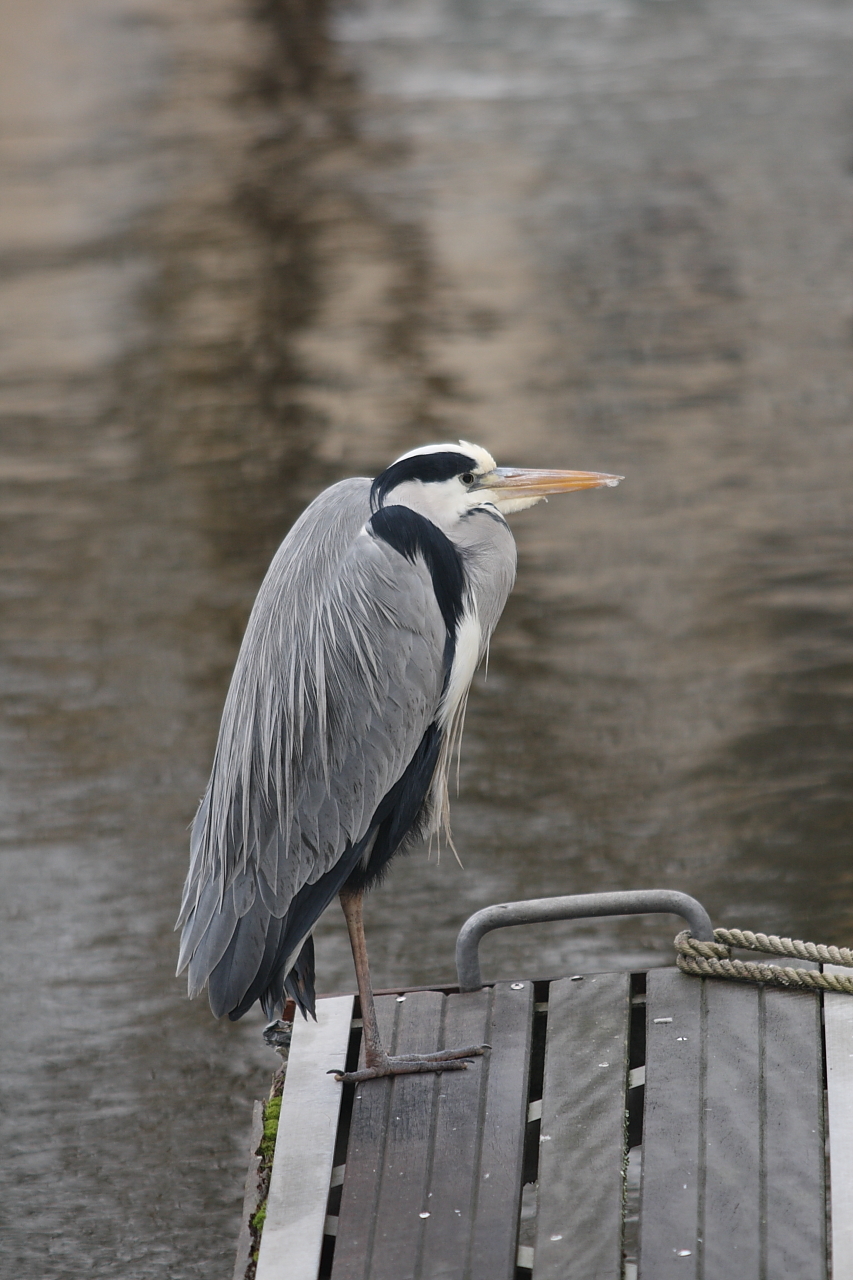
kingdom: Animalia
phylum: Chordata
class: Aves
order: Pelecaniformes
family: Ardeidae
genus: Ardea
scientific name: Ardea cinerea
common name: Grey heron
